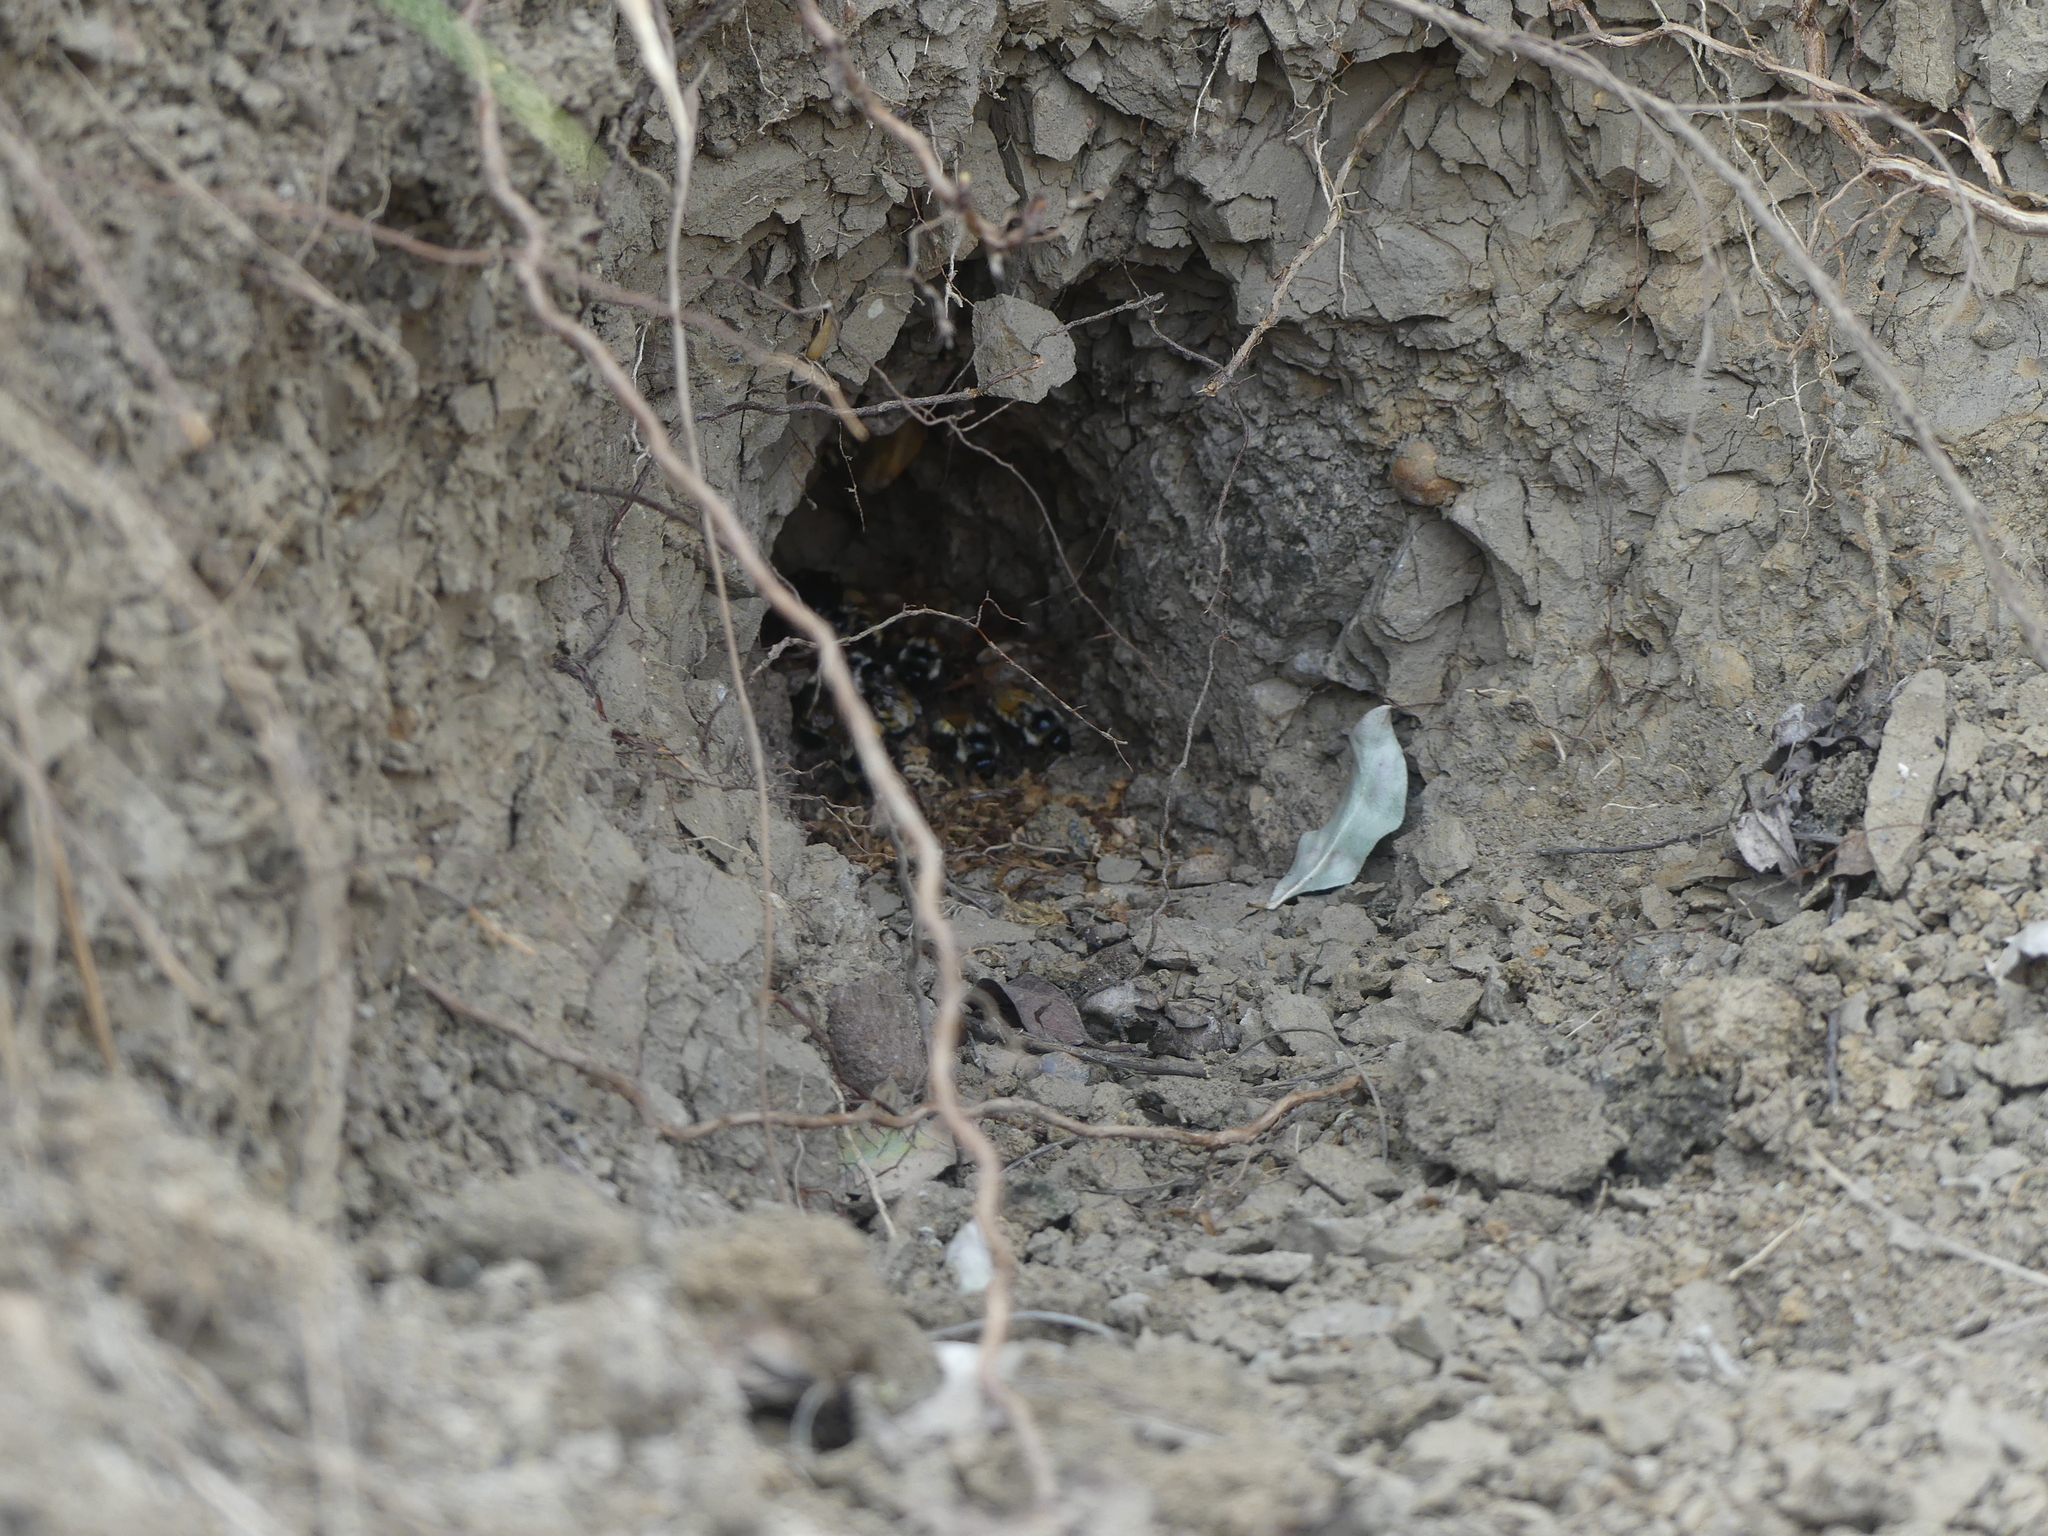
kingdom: Animalia
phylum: Arthropoda
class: Insecta
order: Hymenoptera
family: Apidae
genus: Bombus
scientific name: Bombus ternarius
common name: Tri-colored bumble bee
